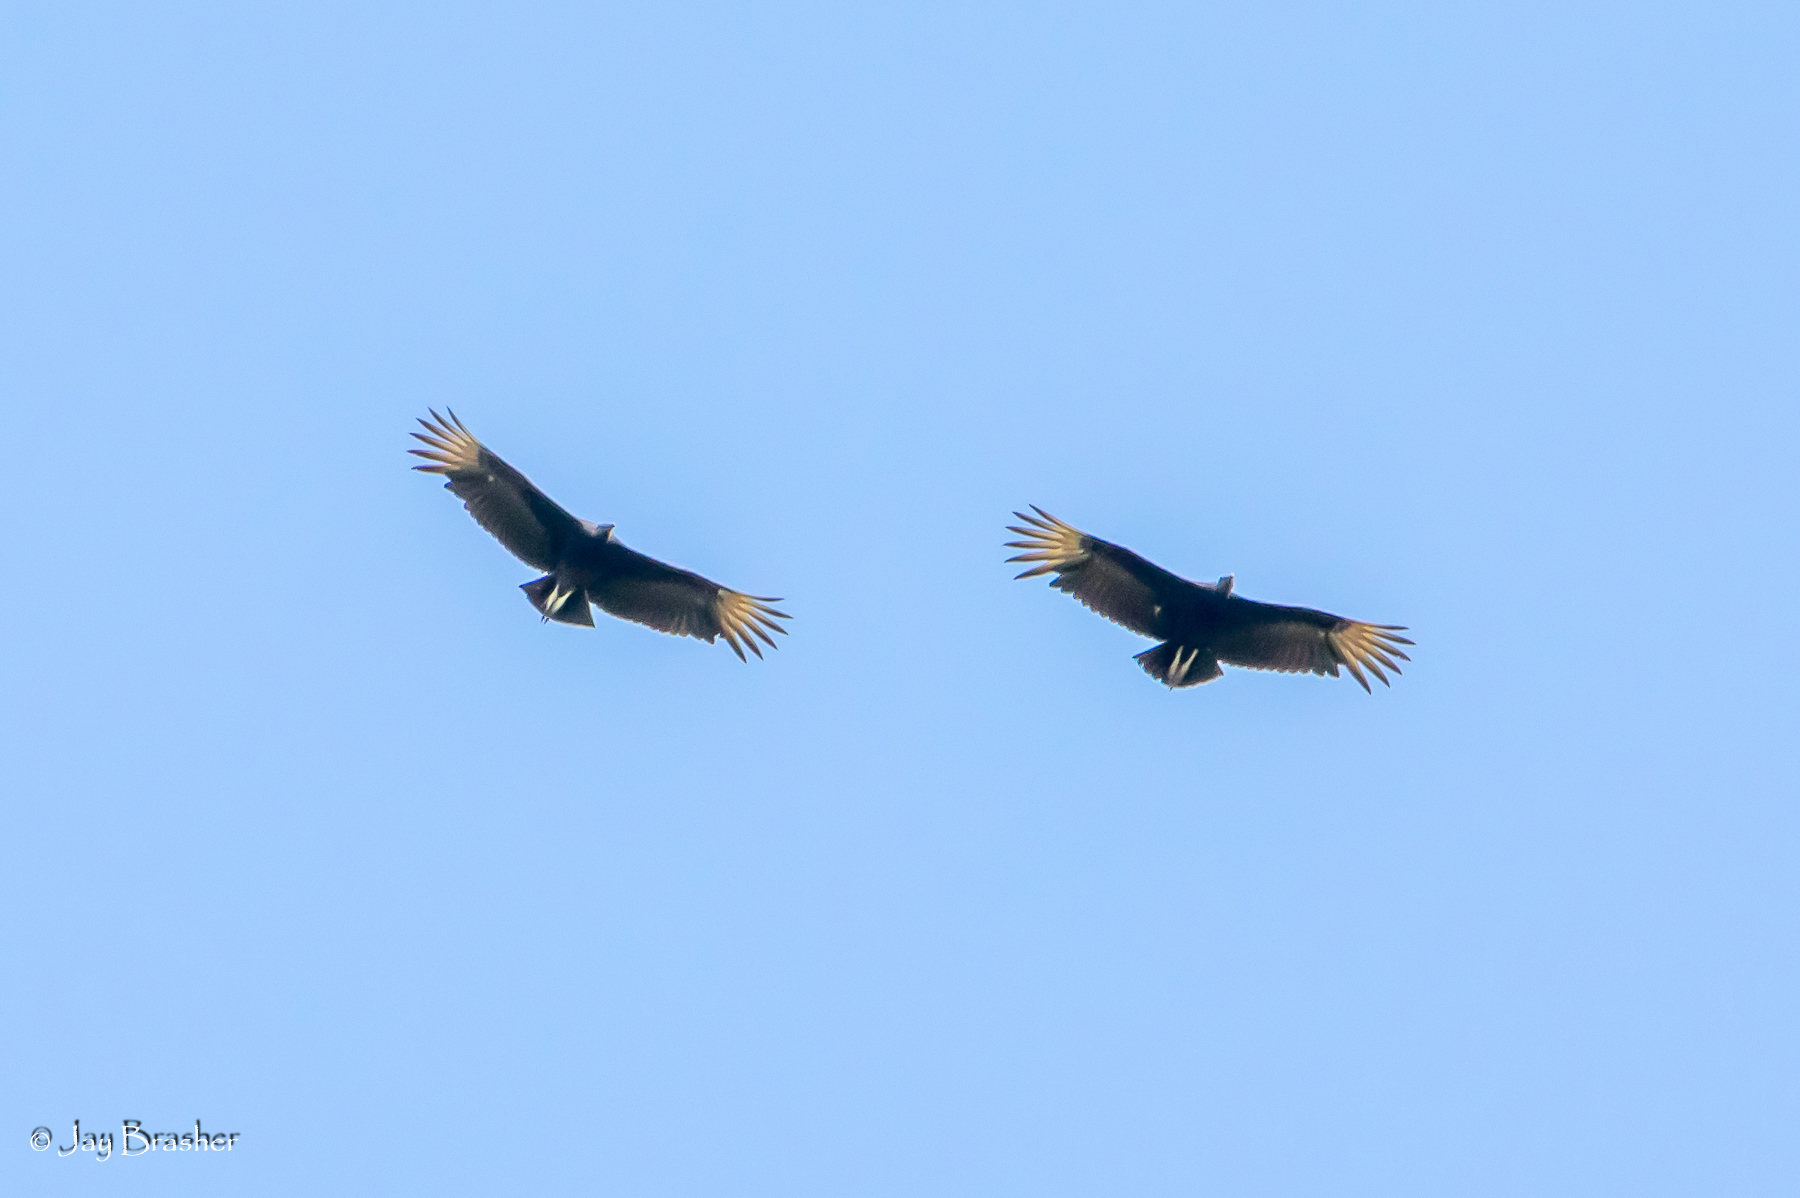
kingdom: Animalia
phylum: Chordata
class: Aves
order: Accipitriformes
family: Cathartidae
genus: Coragyps
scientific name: Coragyps atratus
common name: Black vulture
